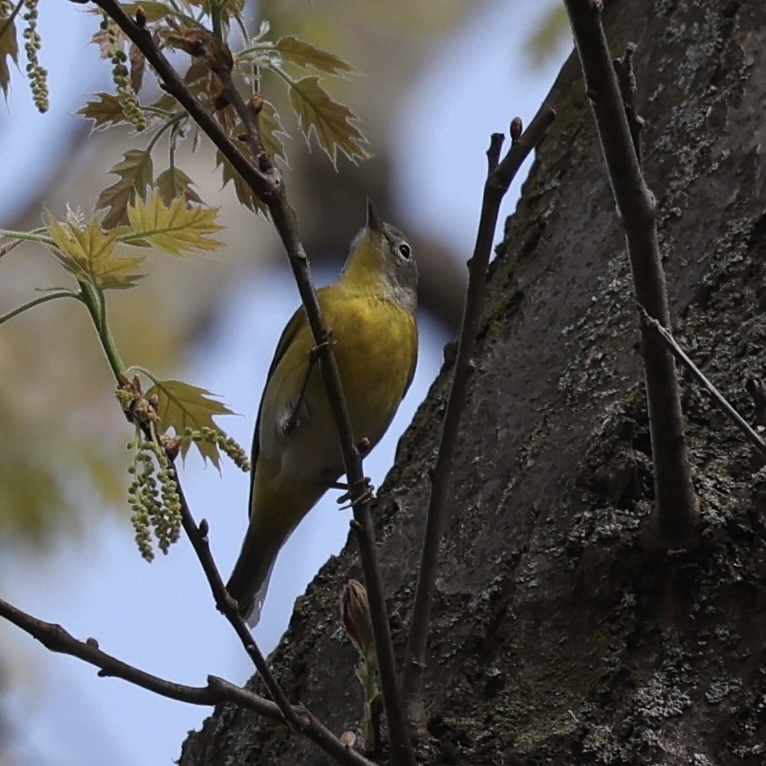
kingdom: Animalia
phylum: Chordata
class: Aves
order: Passeriformes
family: Parulidae
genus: Leiothlypis
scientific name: Leiothlypis ruficapilla
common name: Nashville warbler
